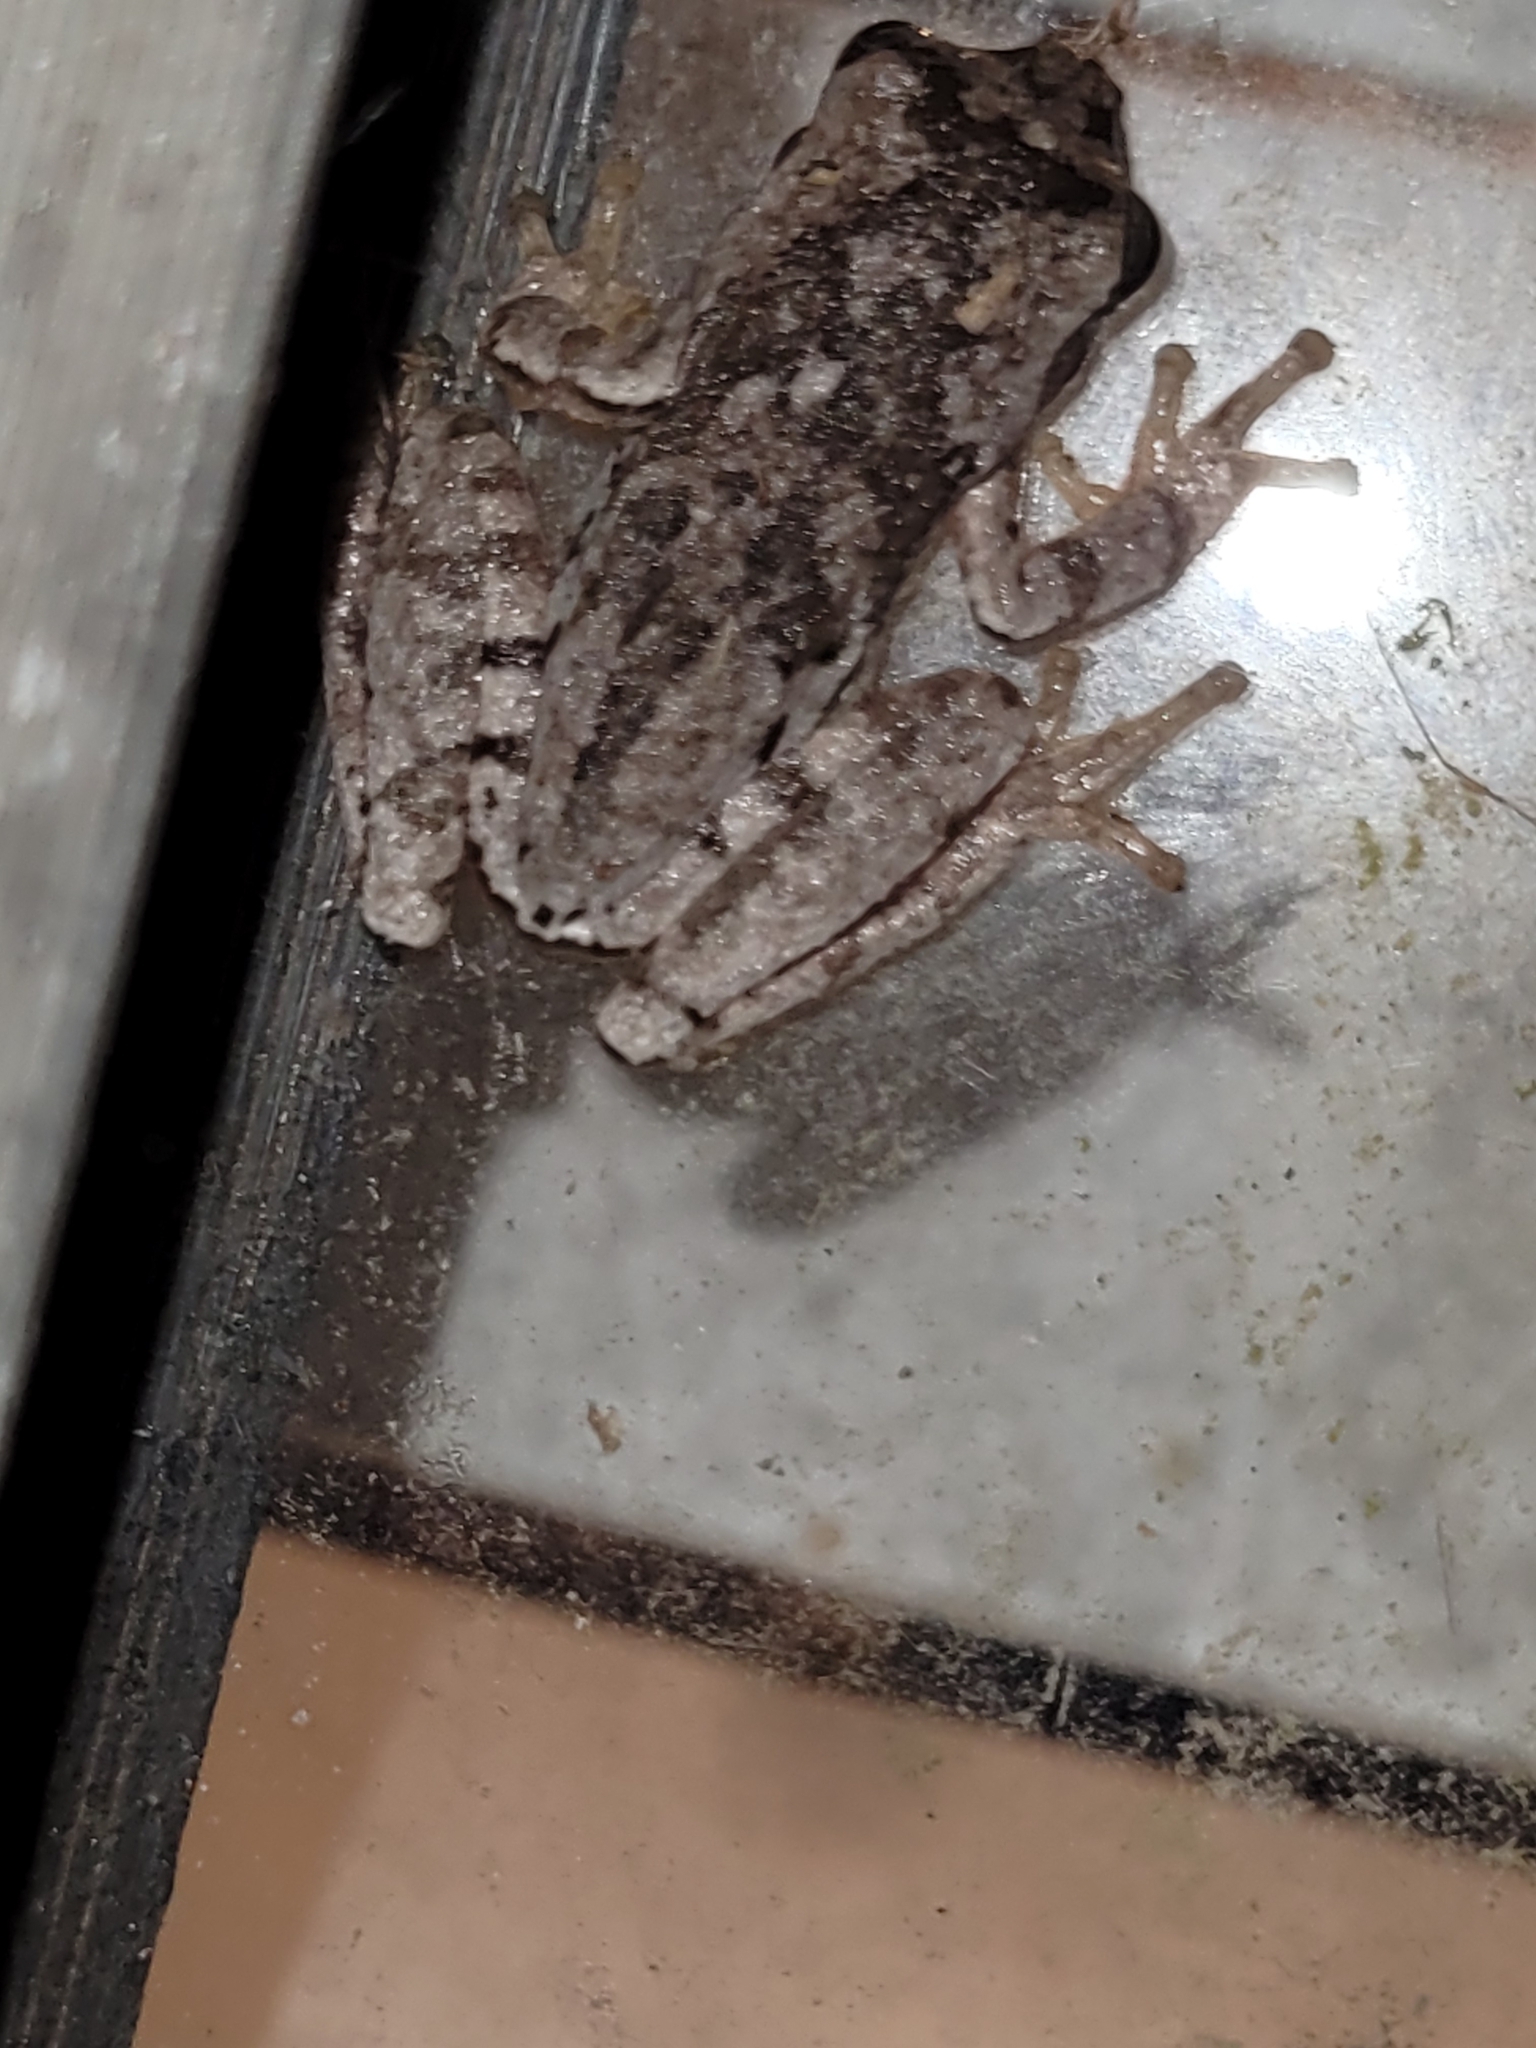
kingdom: Animalia
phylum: Chordata
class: Amphibia
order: Anura
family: Hylidae
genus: Hyla
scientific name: Hyla femoralis
